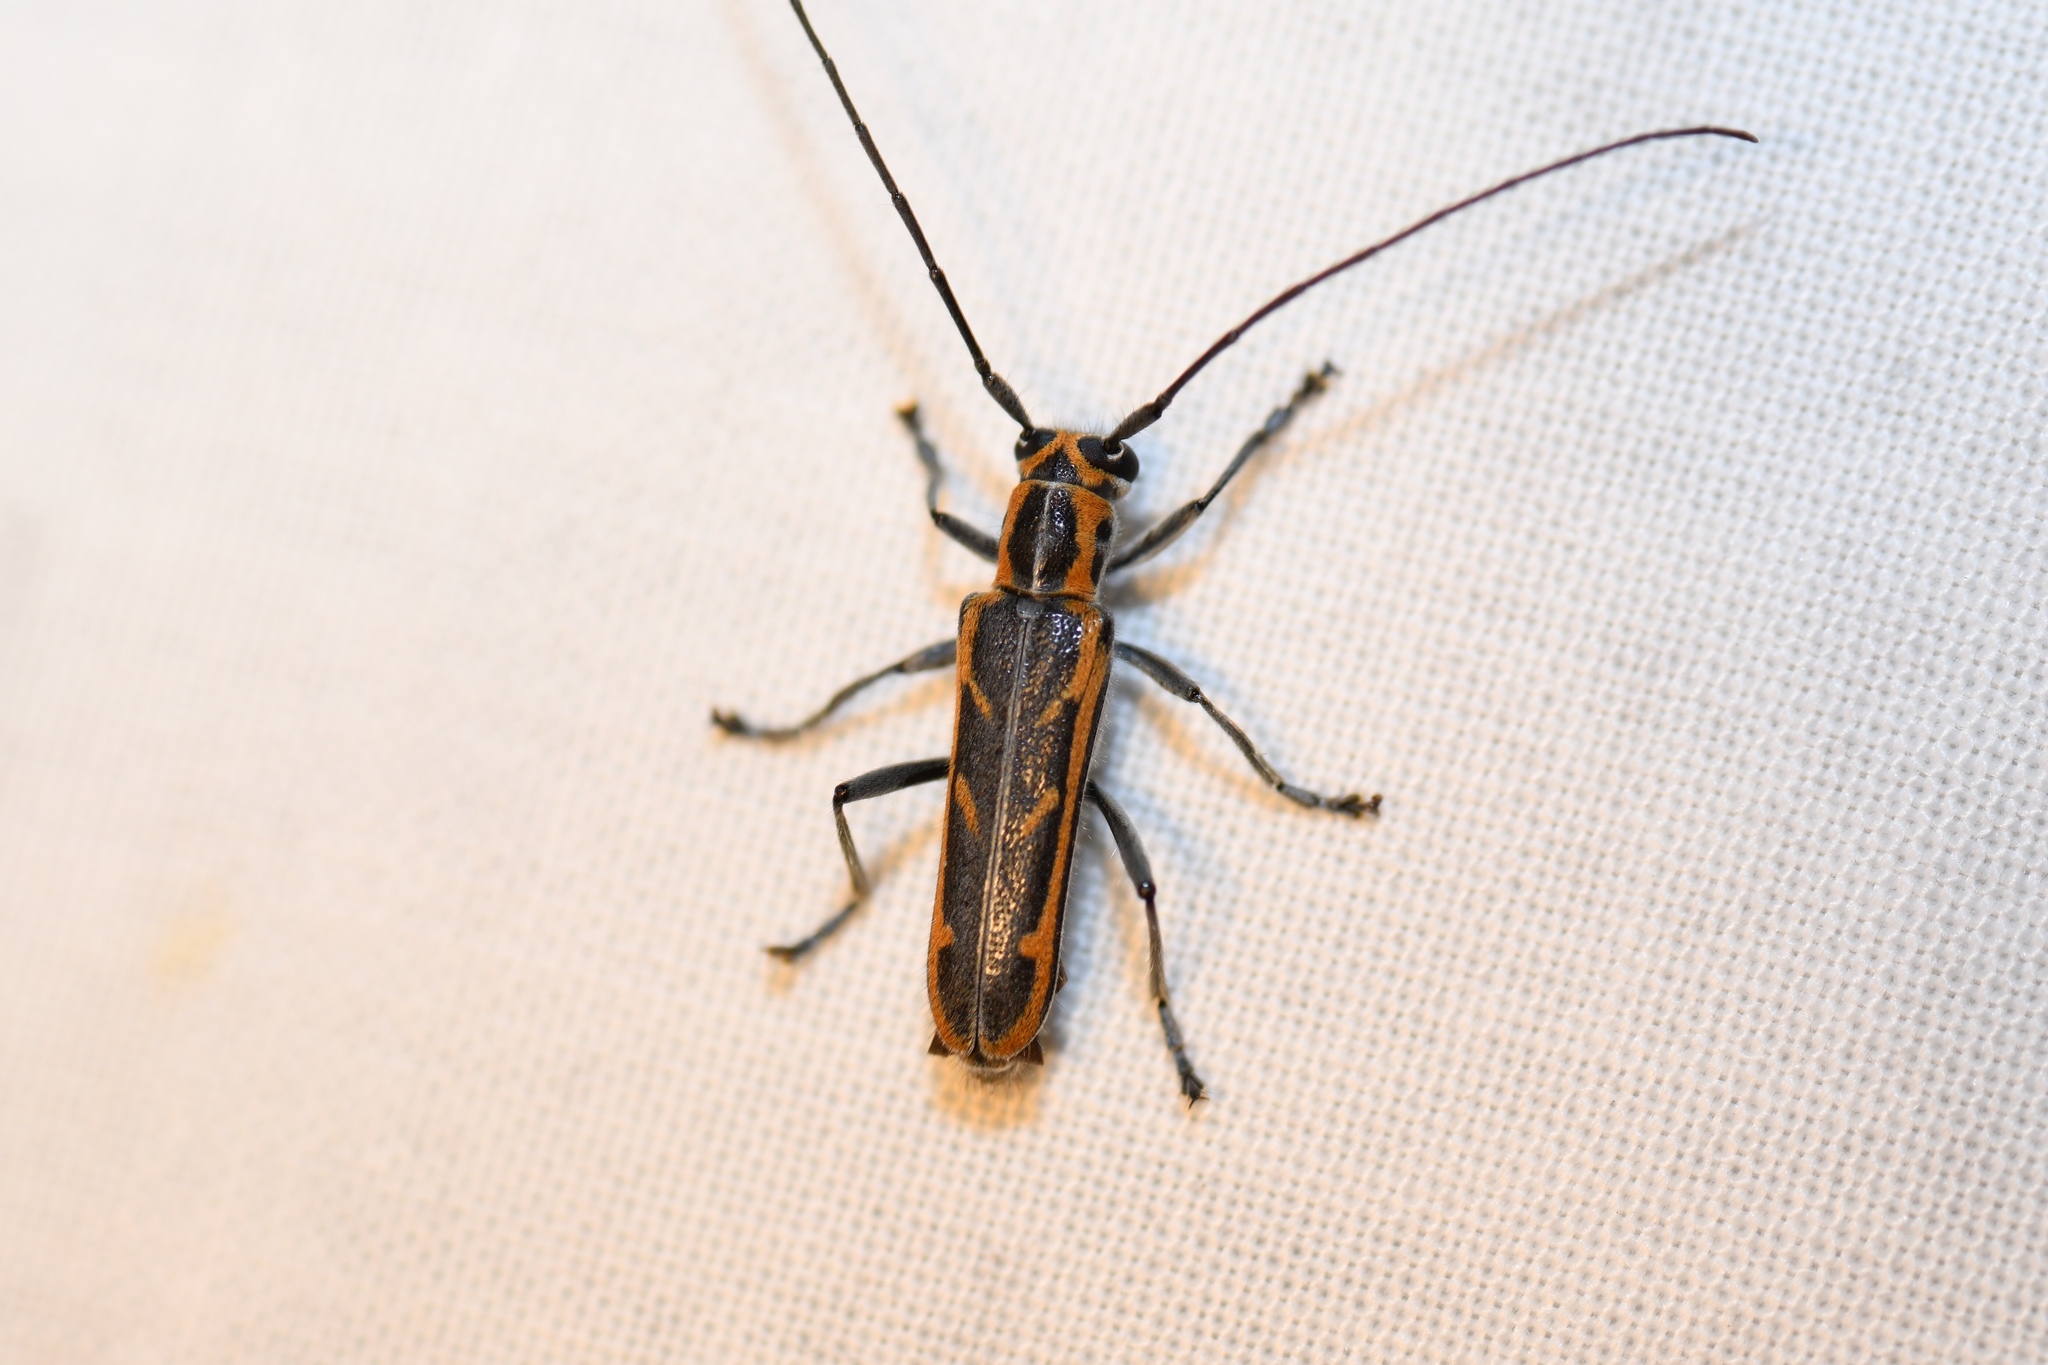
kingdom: Animalia
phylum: Arthropoda
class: Insecta
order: Coleoptera
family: Cerambycidae
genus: Saperda
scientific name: Saperda imitans
